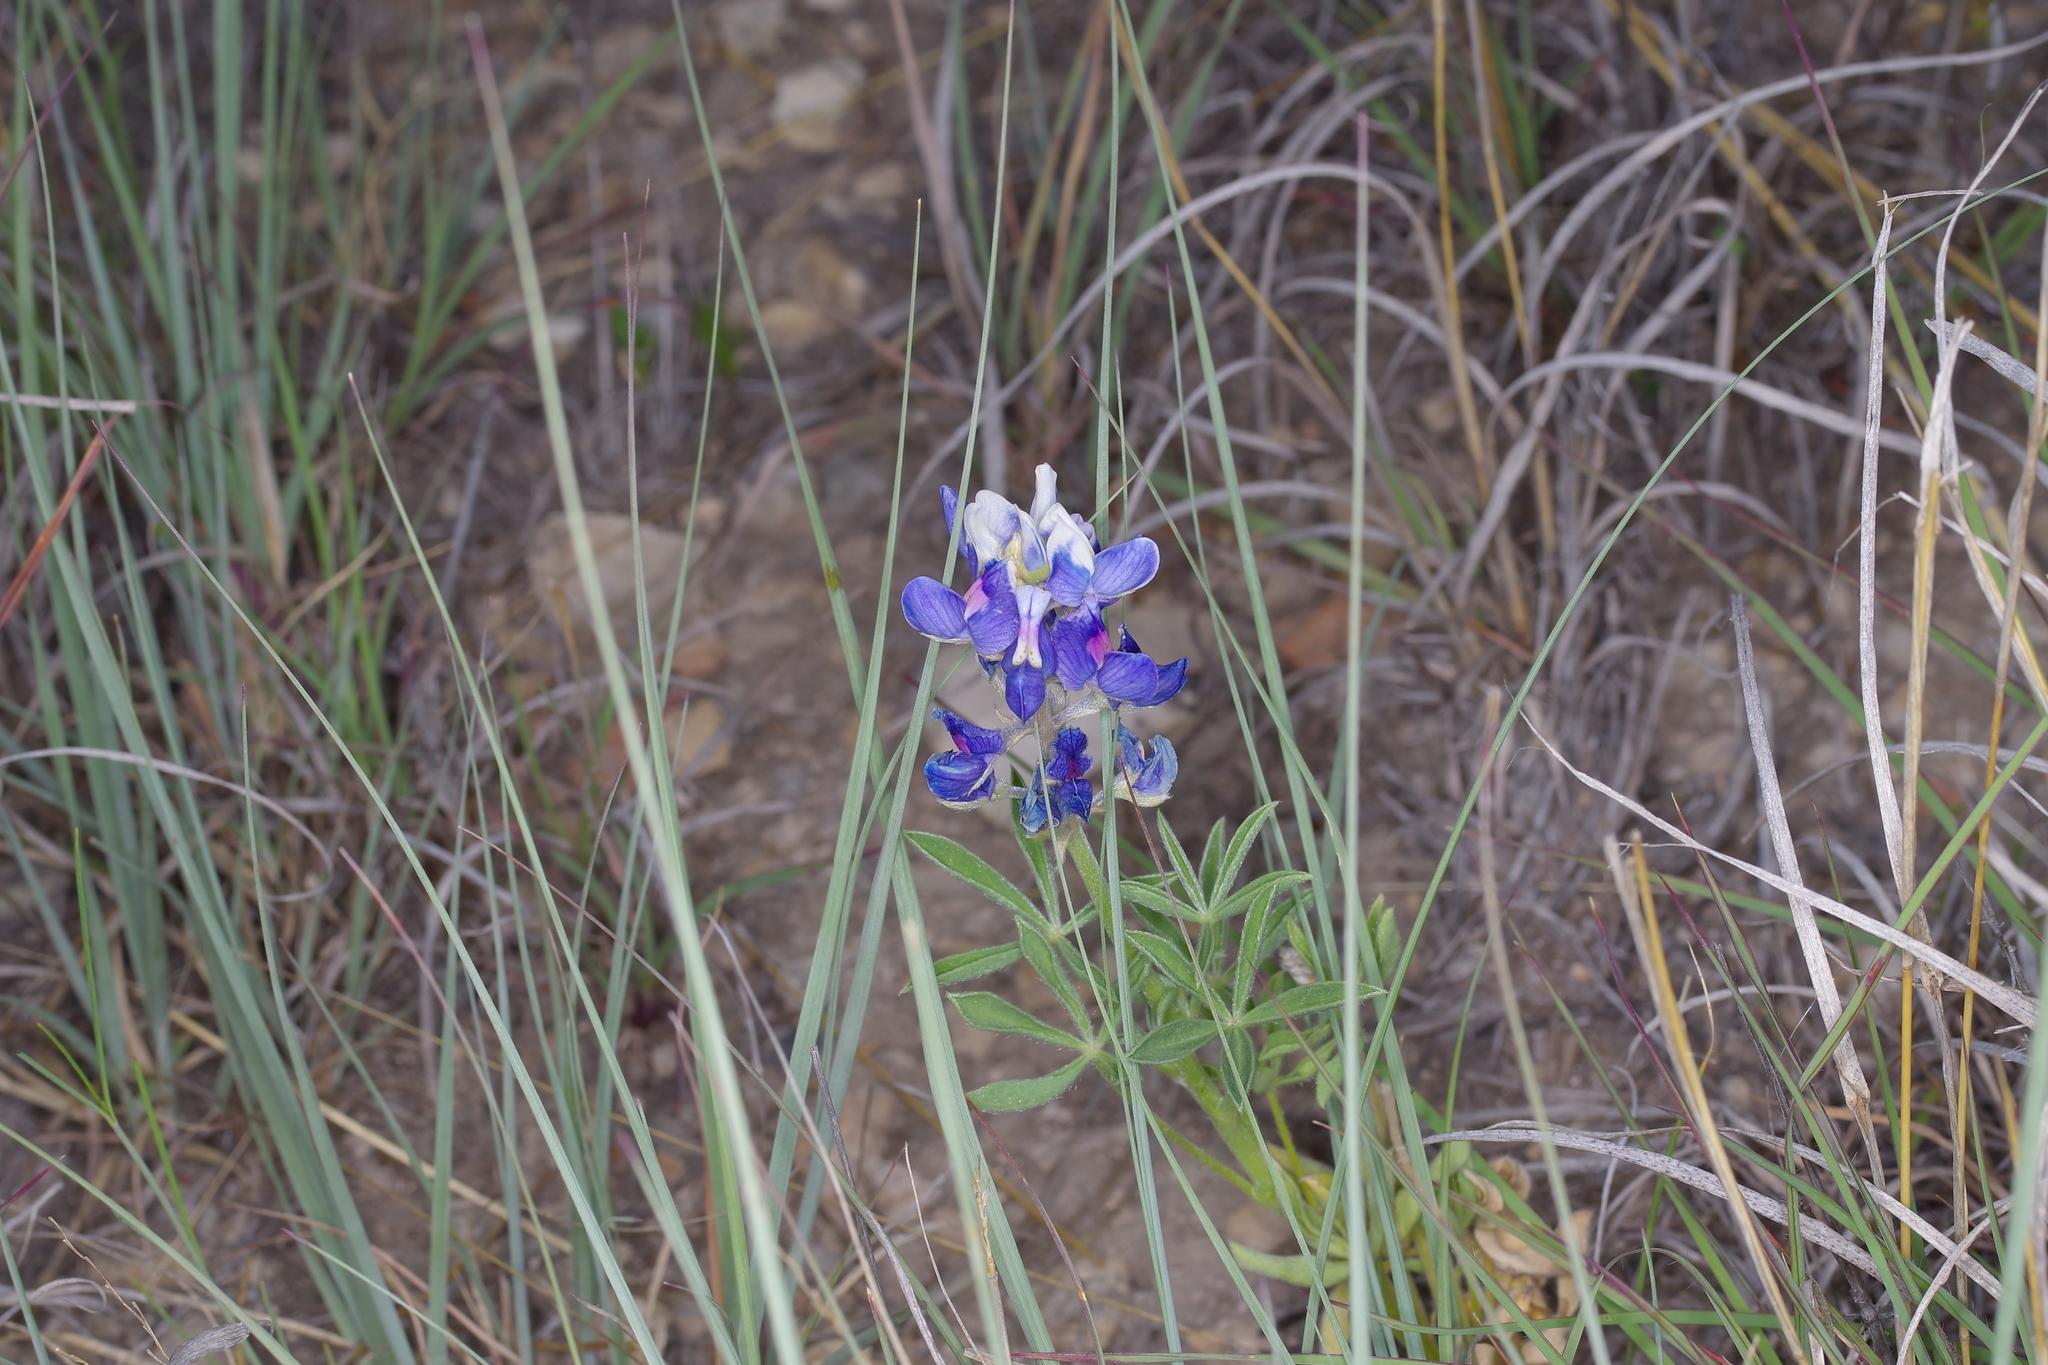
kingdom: Plantae
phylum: Tracheophyta
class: Magnoliopsida
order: Fabales
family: Fabaceae
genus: Lupinus
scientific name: Lupinus texensis
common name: Texas bluebonnet
